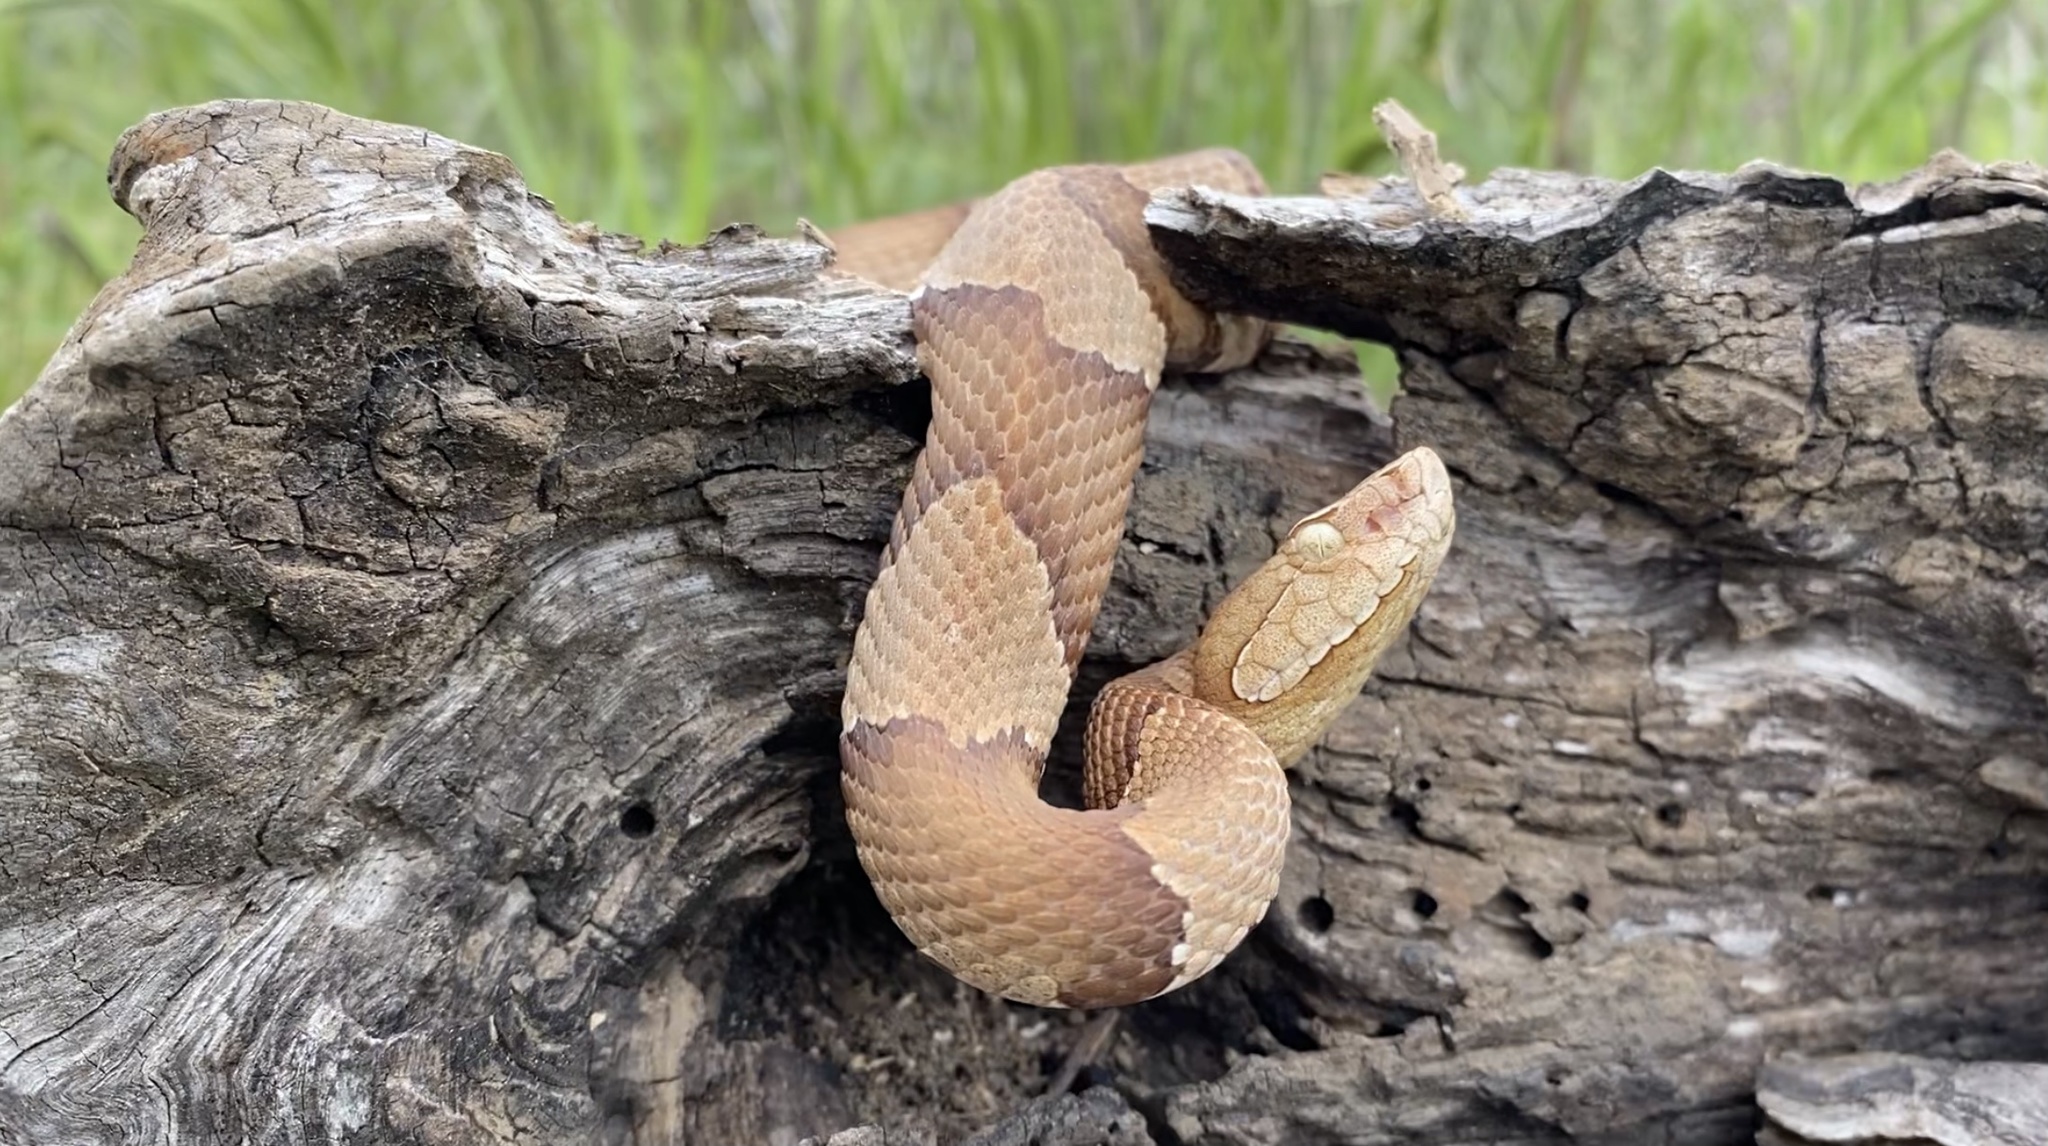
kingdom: Animalia
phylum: Chordata
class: Squamata
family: Viperidae
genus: Agkistrodon
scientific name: Agkistrodon laticinctus
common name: Broad-banded copperhead
